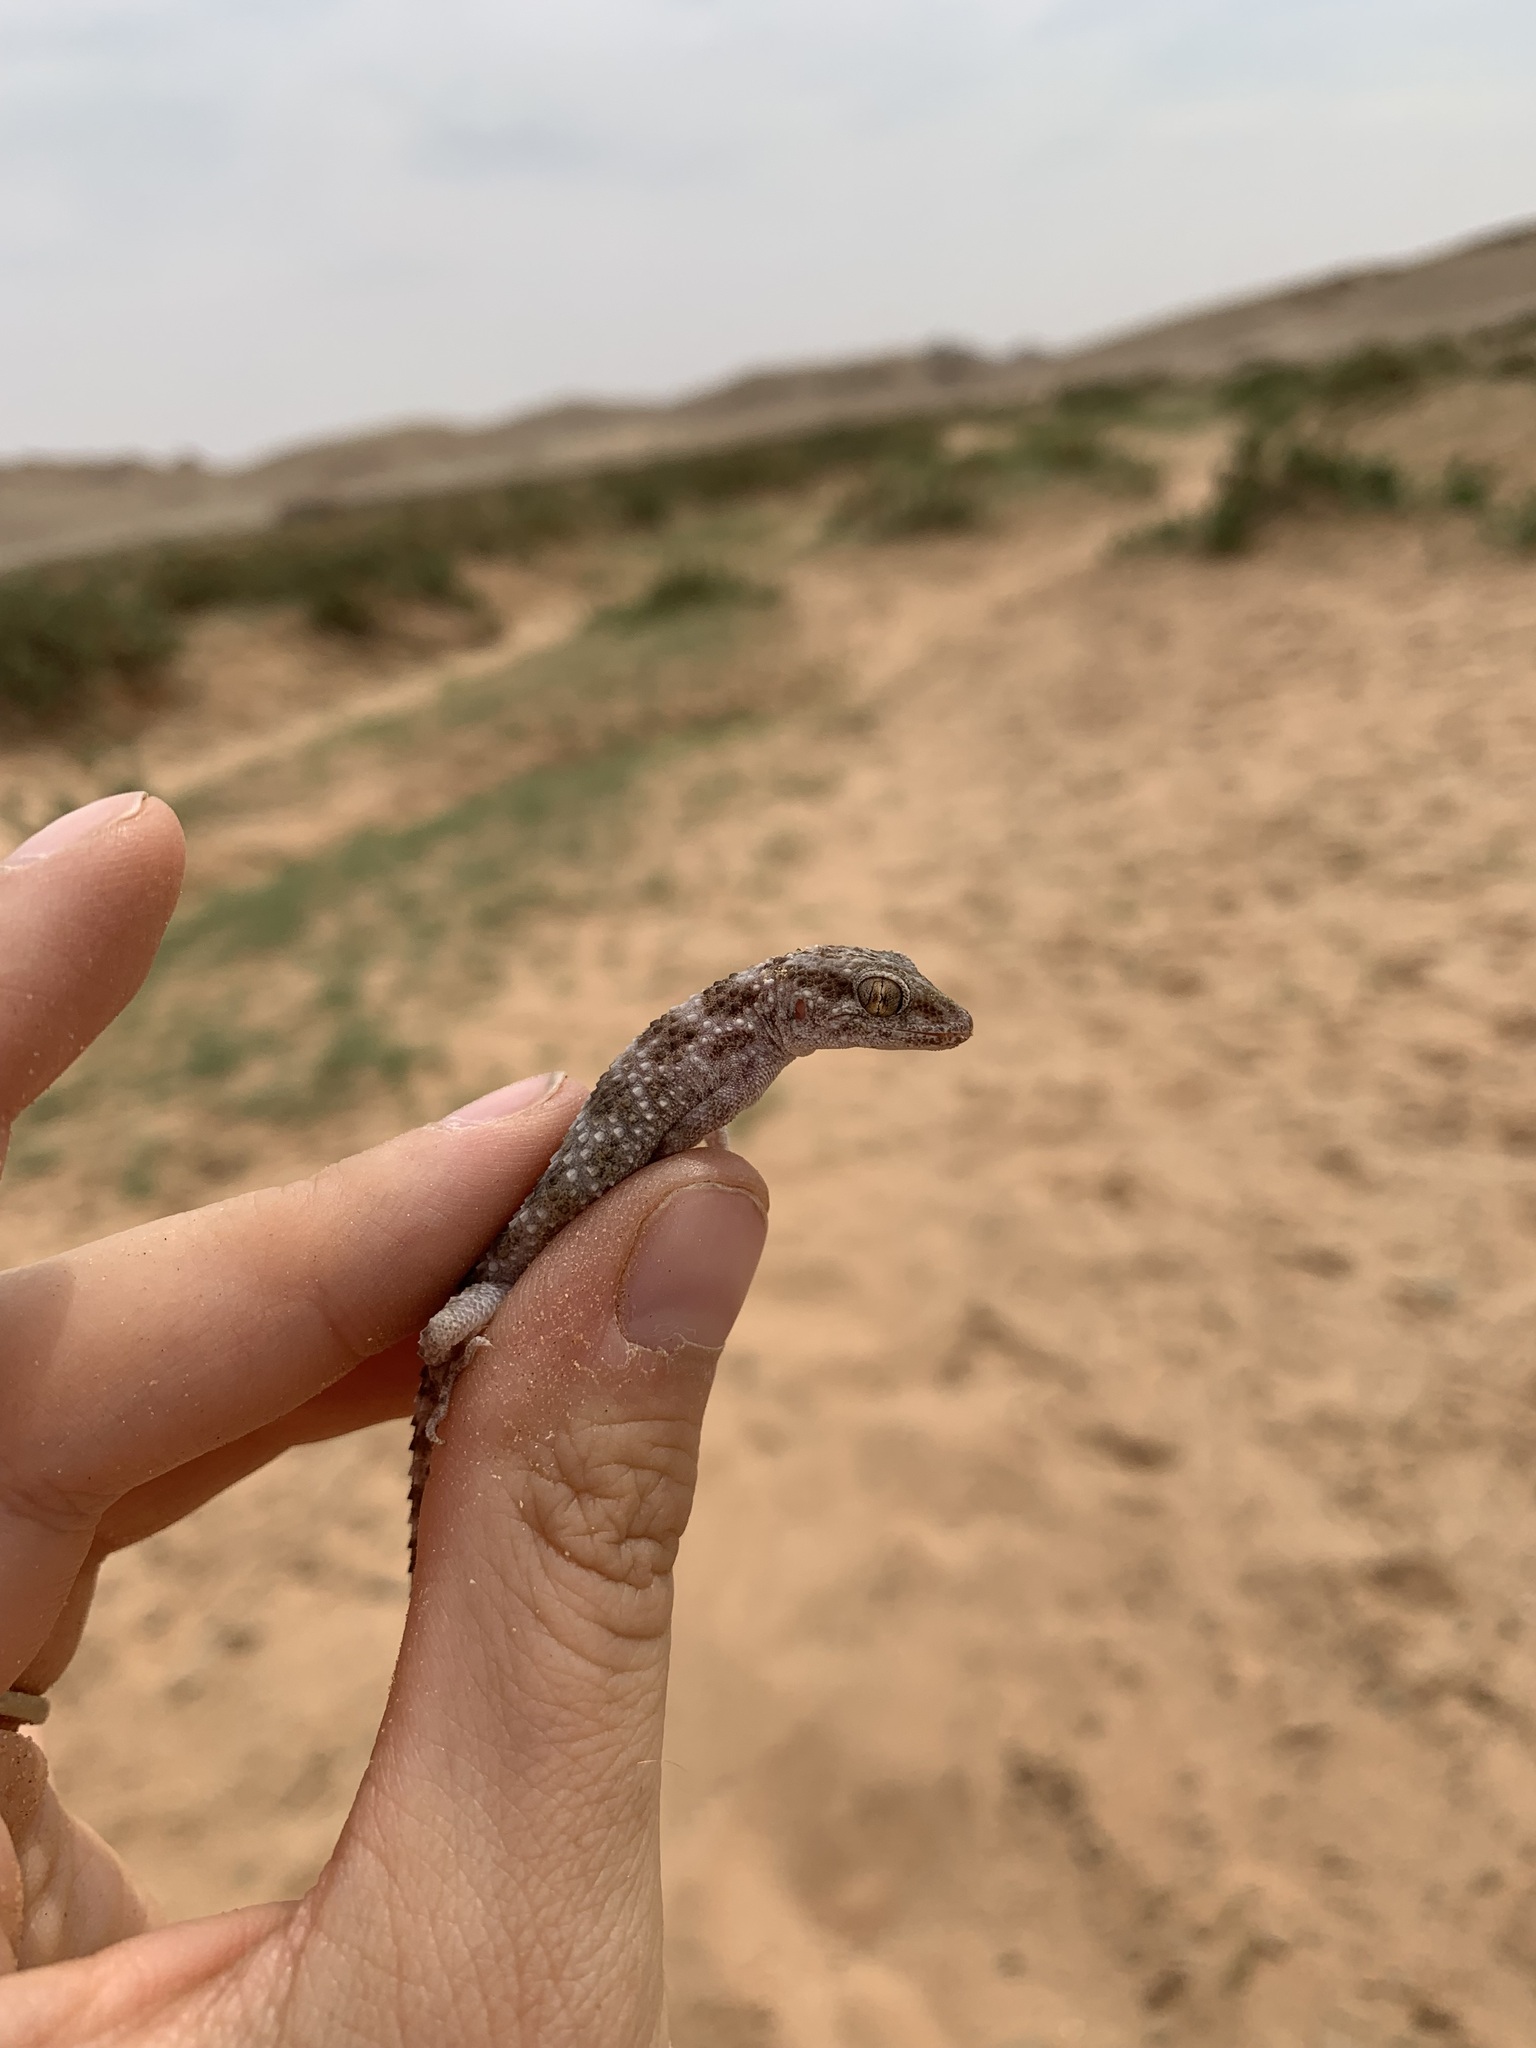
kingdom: Animalia
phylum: Chordata
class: Squamata
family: Gekkonidae
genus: Bunopus
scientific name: Bunopus tuberculatus
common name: Southern tuberculated gecko
